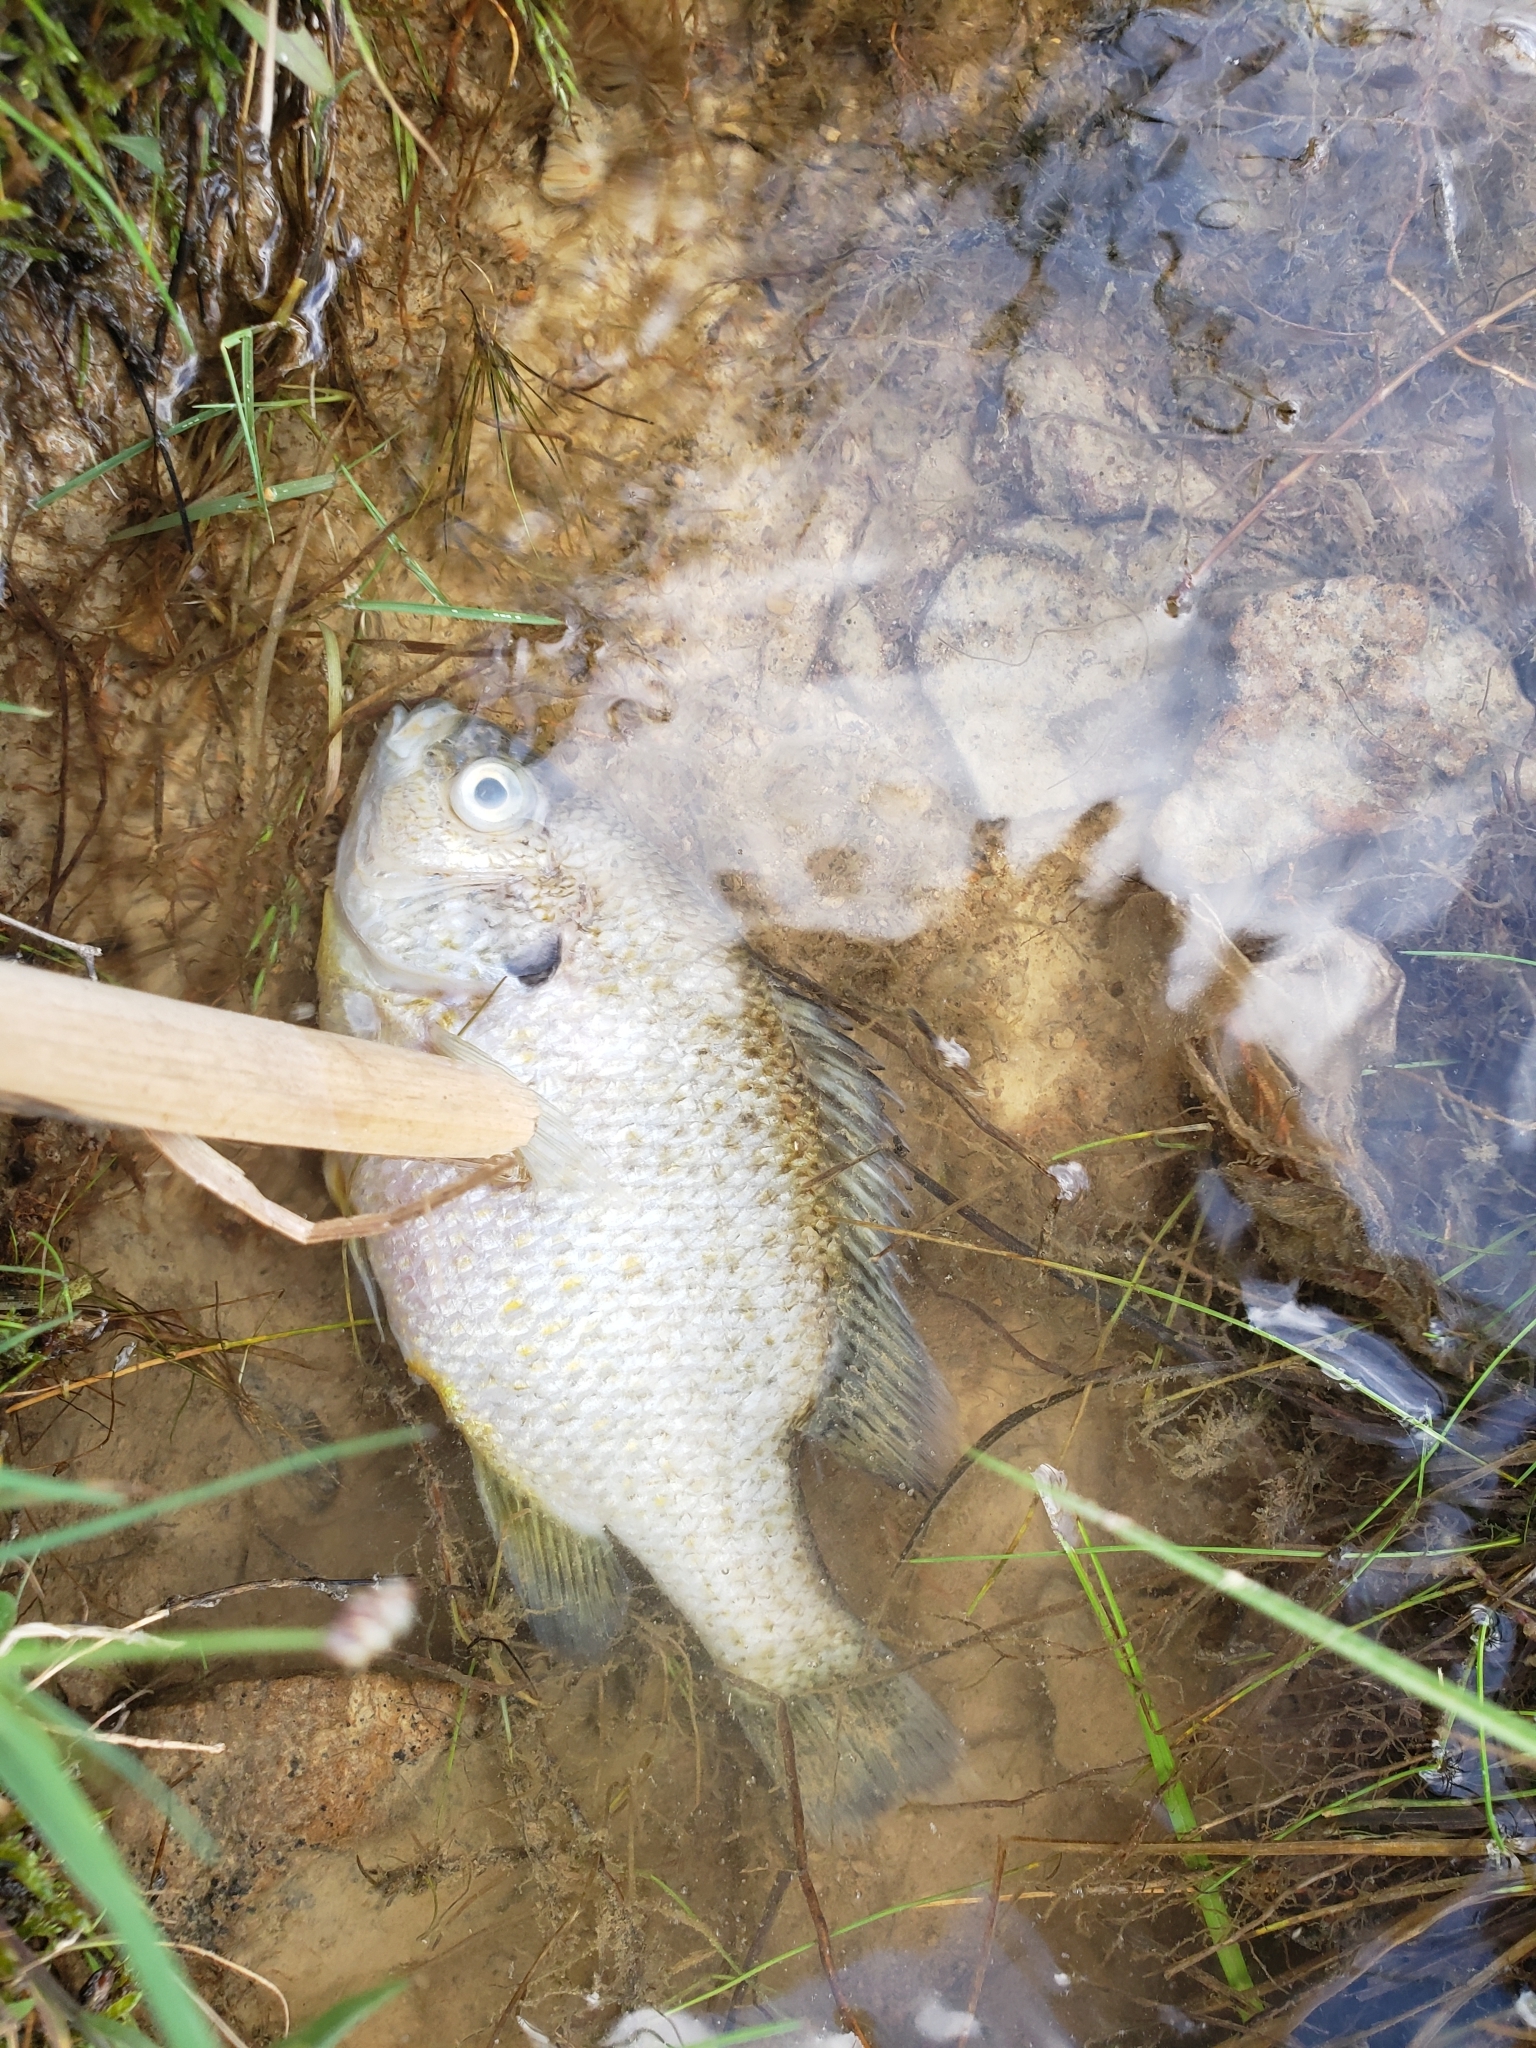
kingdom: Animalia
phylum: Chordata
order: Perciformes
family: Centrarchidae
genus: Lepomis
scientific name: Lepomis cyanellus
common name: Green sunfish
